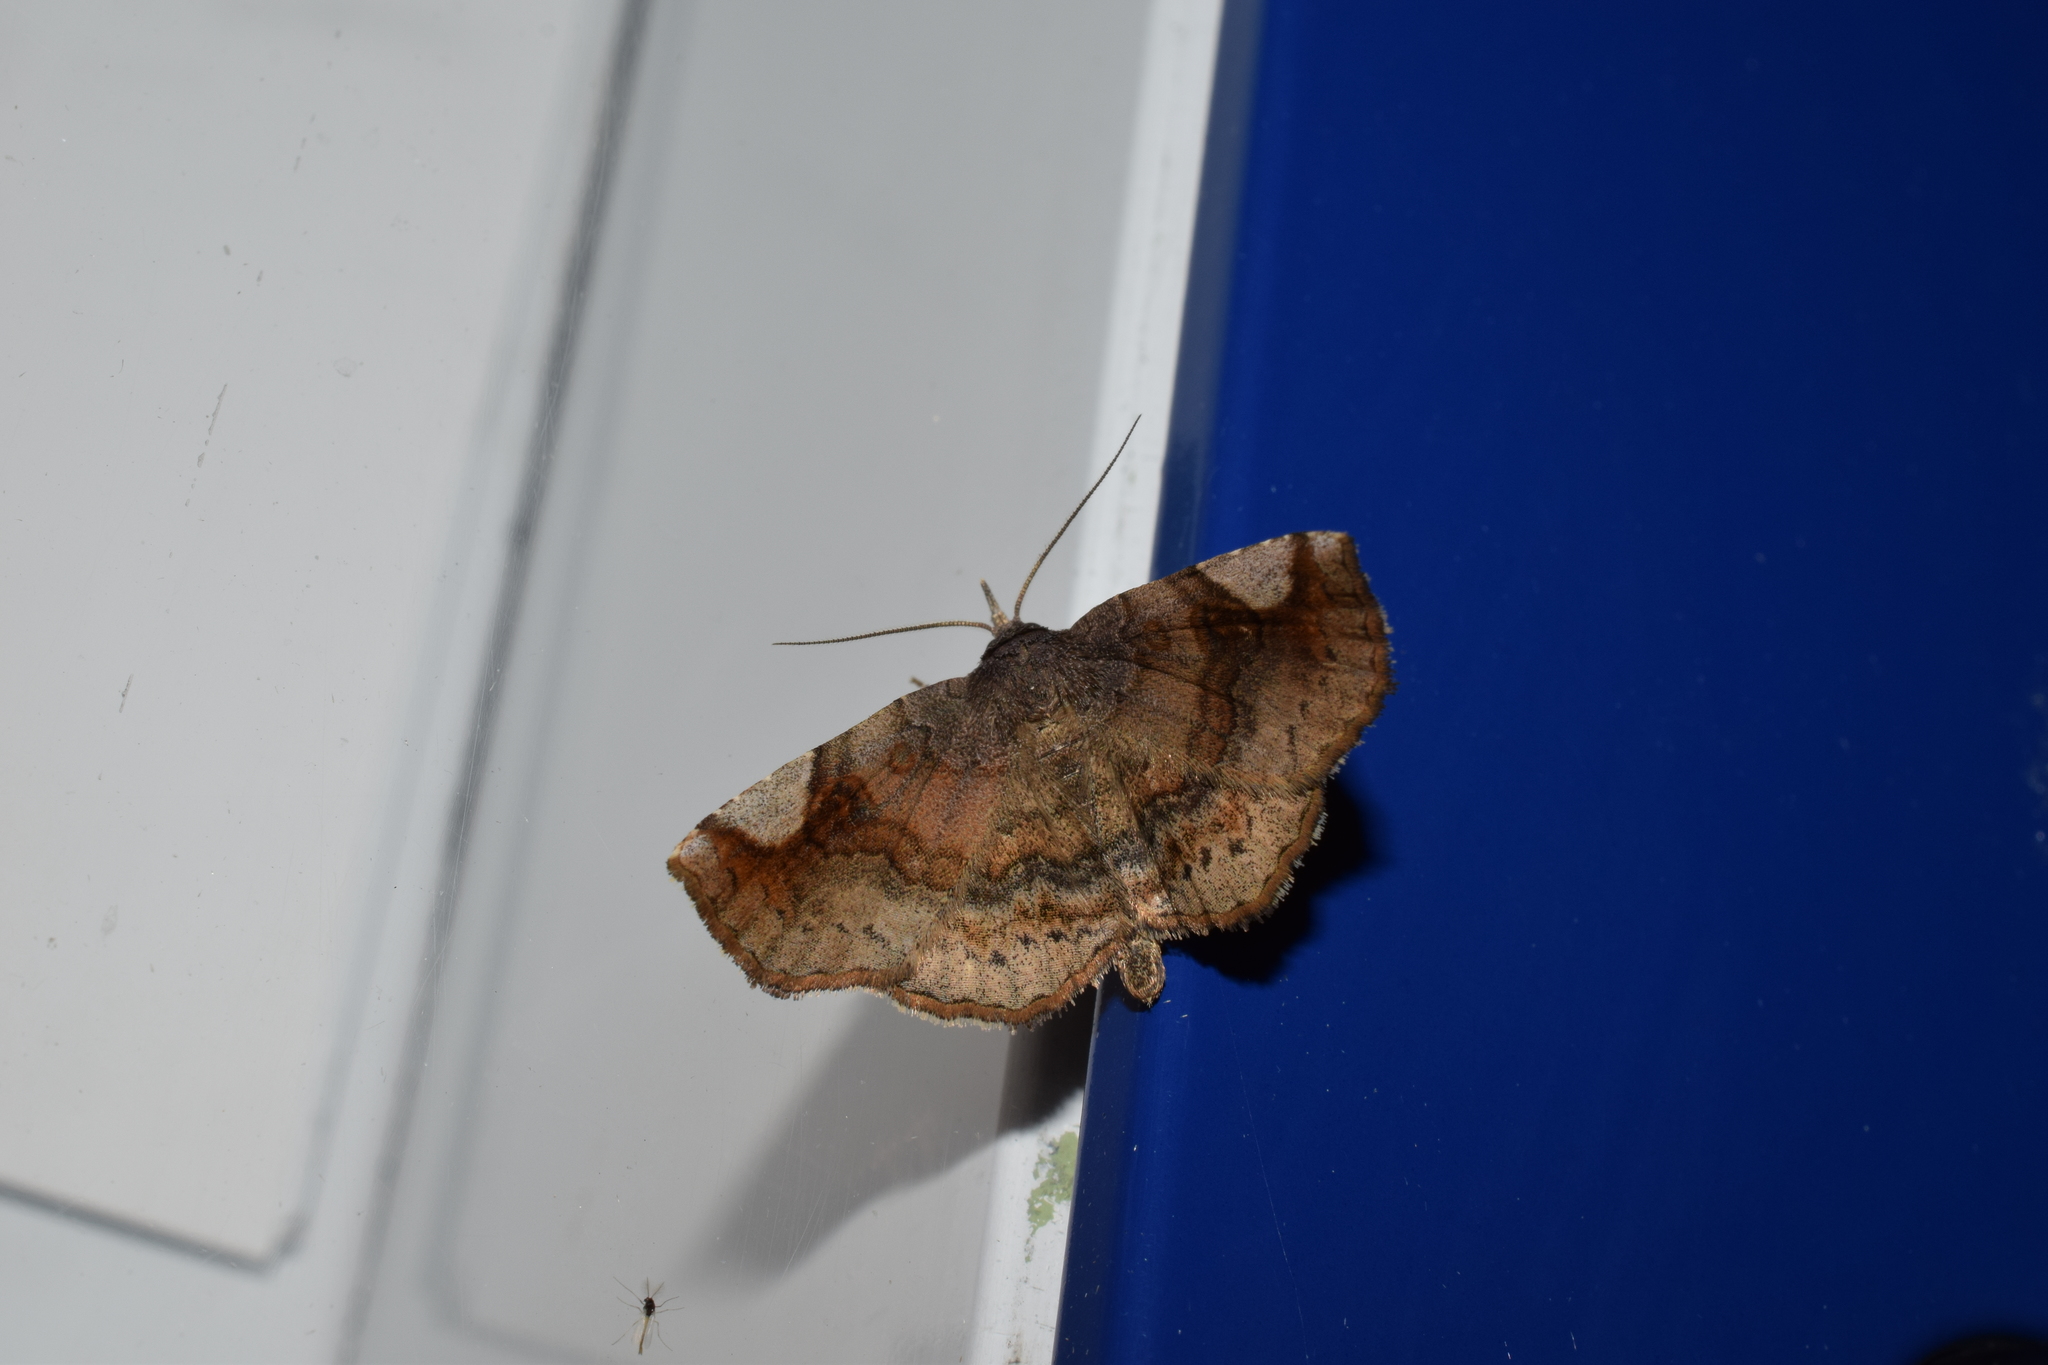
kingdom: Animalia
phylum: Arthropoda
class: Insecta
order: Lepidoptera
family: Erebidae
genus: Pangrapta
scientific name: Pangrapta perturbans
